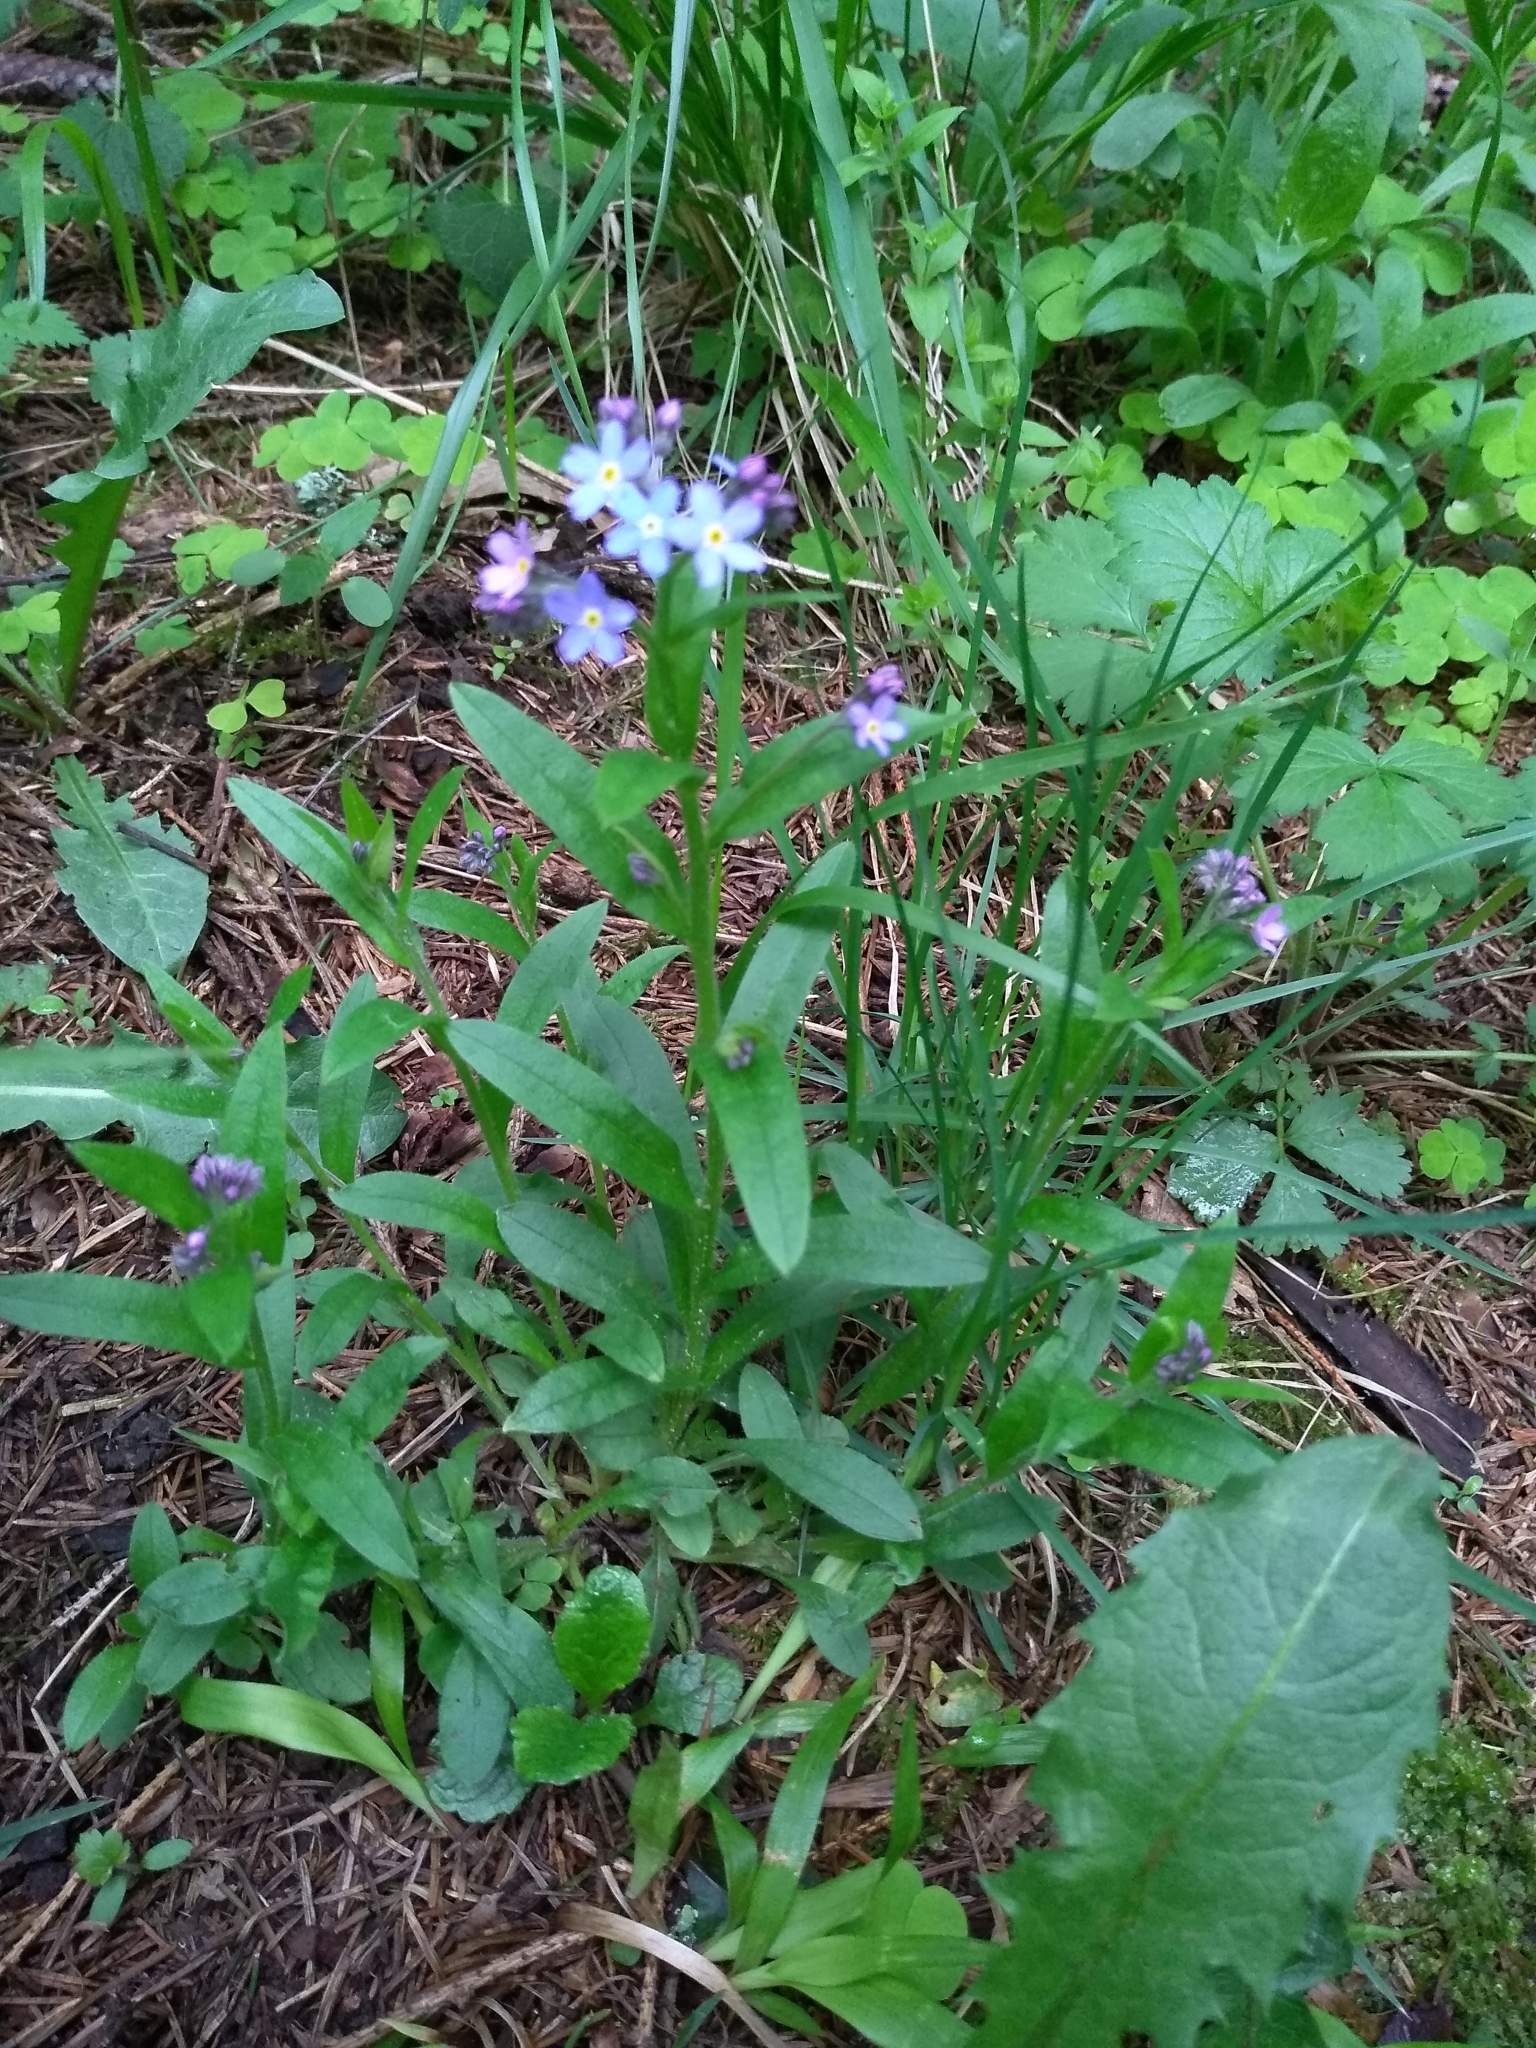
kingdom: Plantae
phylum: Tracheophyta
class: Magnoliopsida
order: Boraginales
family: Boraginaceae
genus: Myosotis
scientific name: Myosotis sylvatica
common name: Wood forget-me-not
